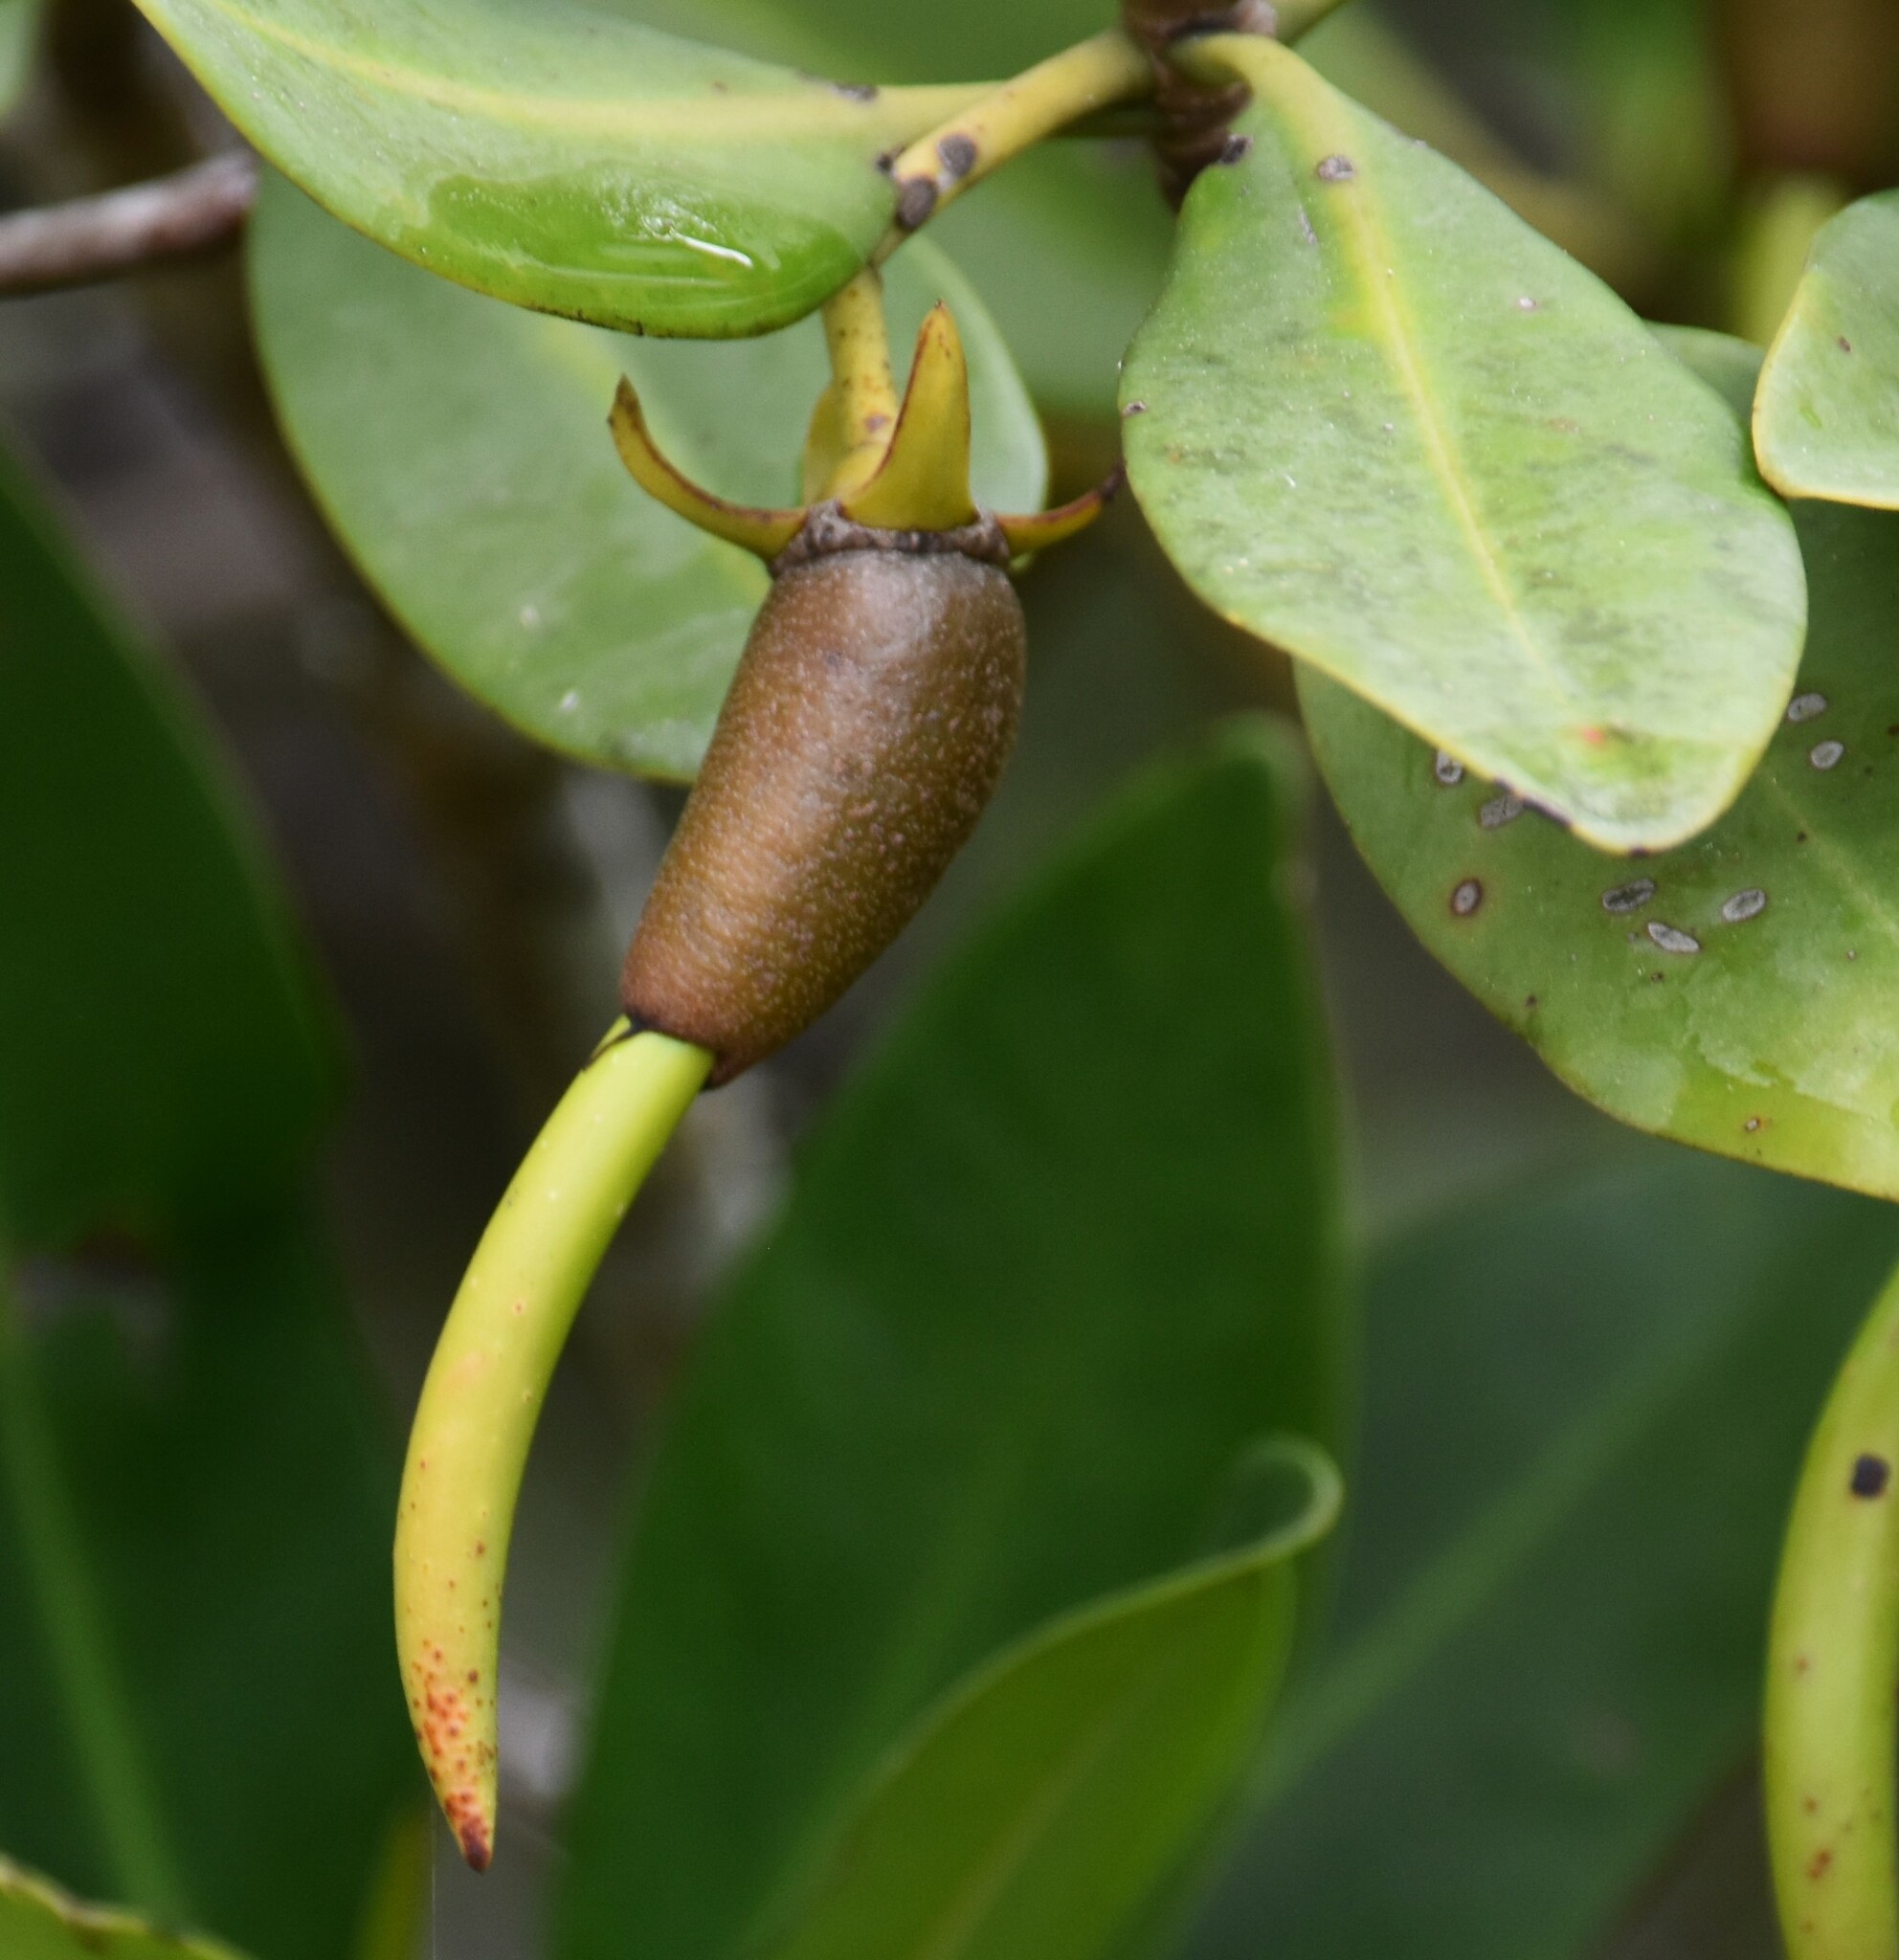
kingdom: Plantae
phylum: Tracheophyta
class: Magnoliopsida
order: Malpighiales
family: Rhizophoraceae
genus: Rhizophora
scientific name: Rhizophora mangle
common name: Red mangrove
